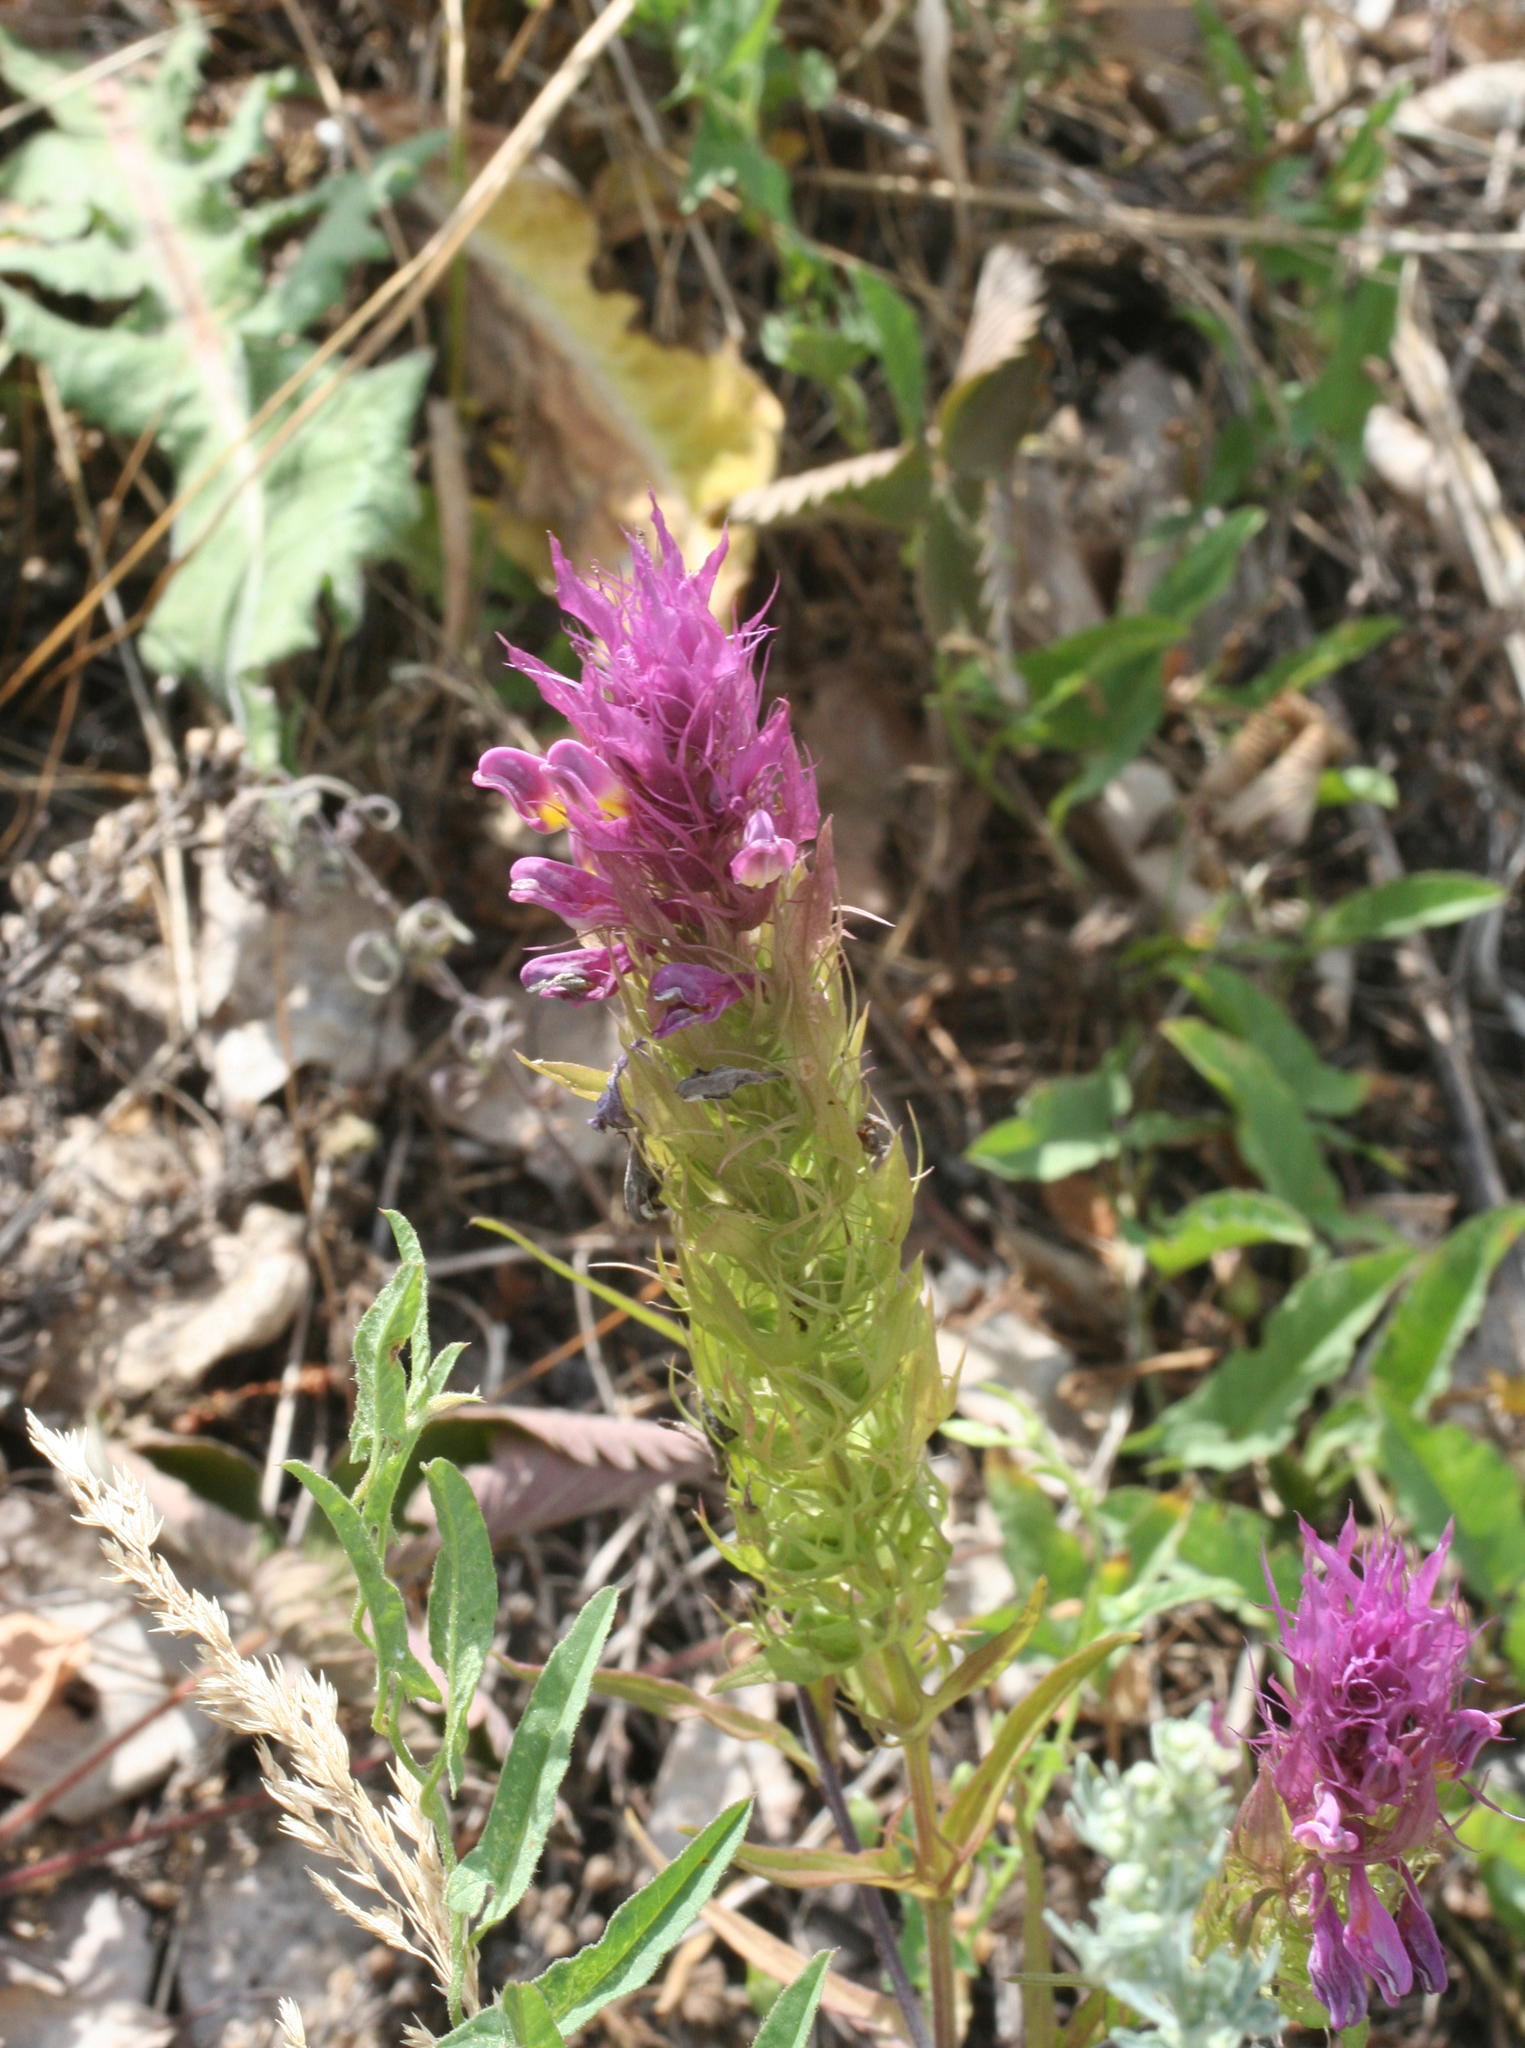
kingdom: Plantae
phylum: Tracheophyta
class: Magnoliopsida
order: Lamiales
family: Orobanchaceae
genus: Melampyrum
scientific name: Melampyrum arvense
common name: Field cow-wheat
